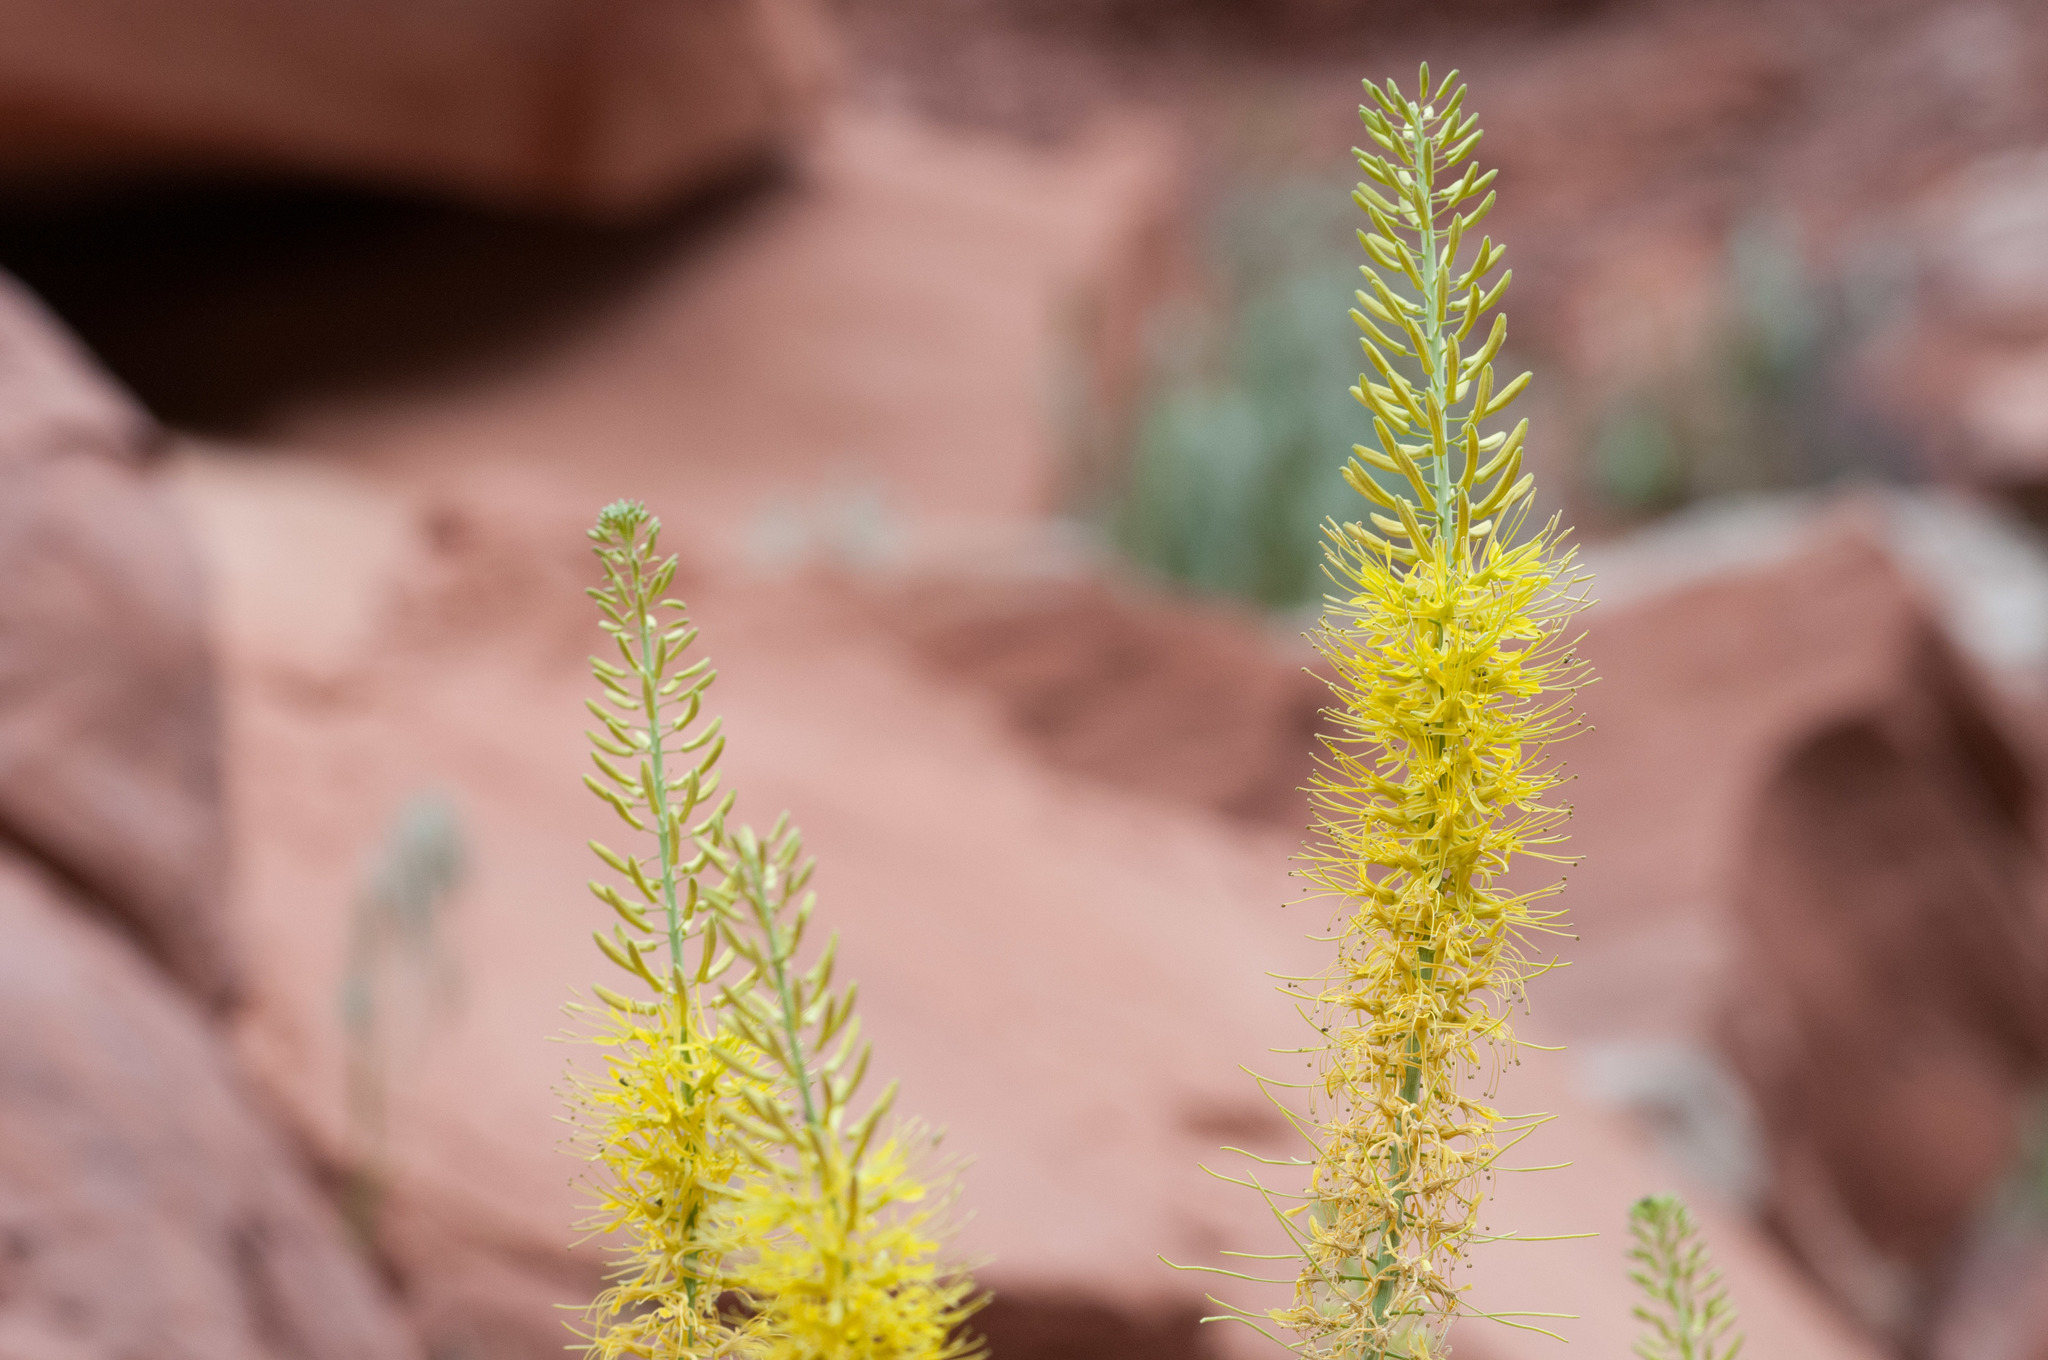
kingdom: Plantae
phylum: Tracheophyta
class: Magnoliopsida
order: Brassicales
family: Brassicaceae
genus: Stanleya
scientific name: Stanleya pinnata
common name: Prince's-plume
